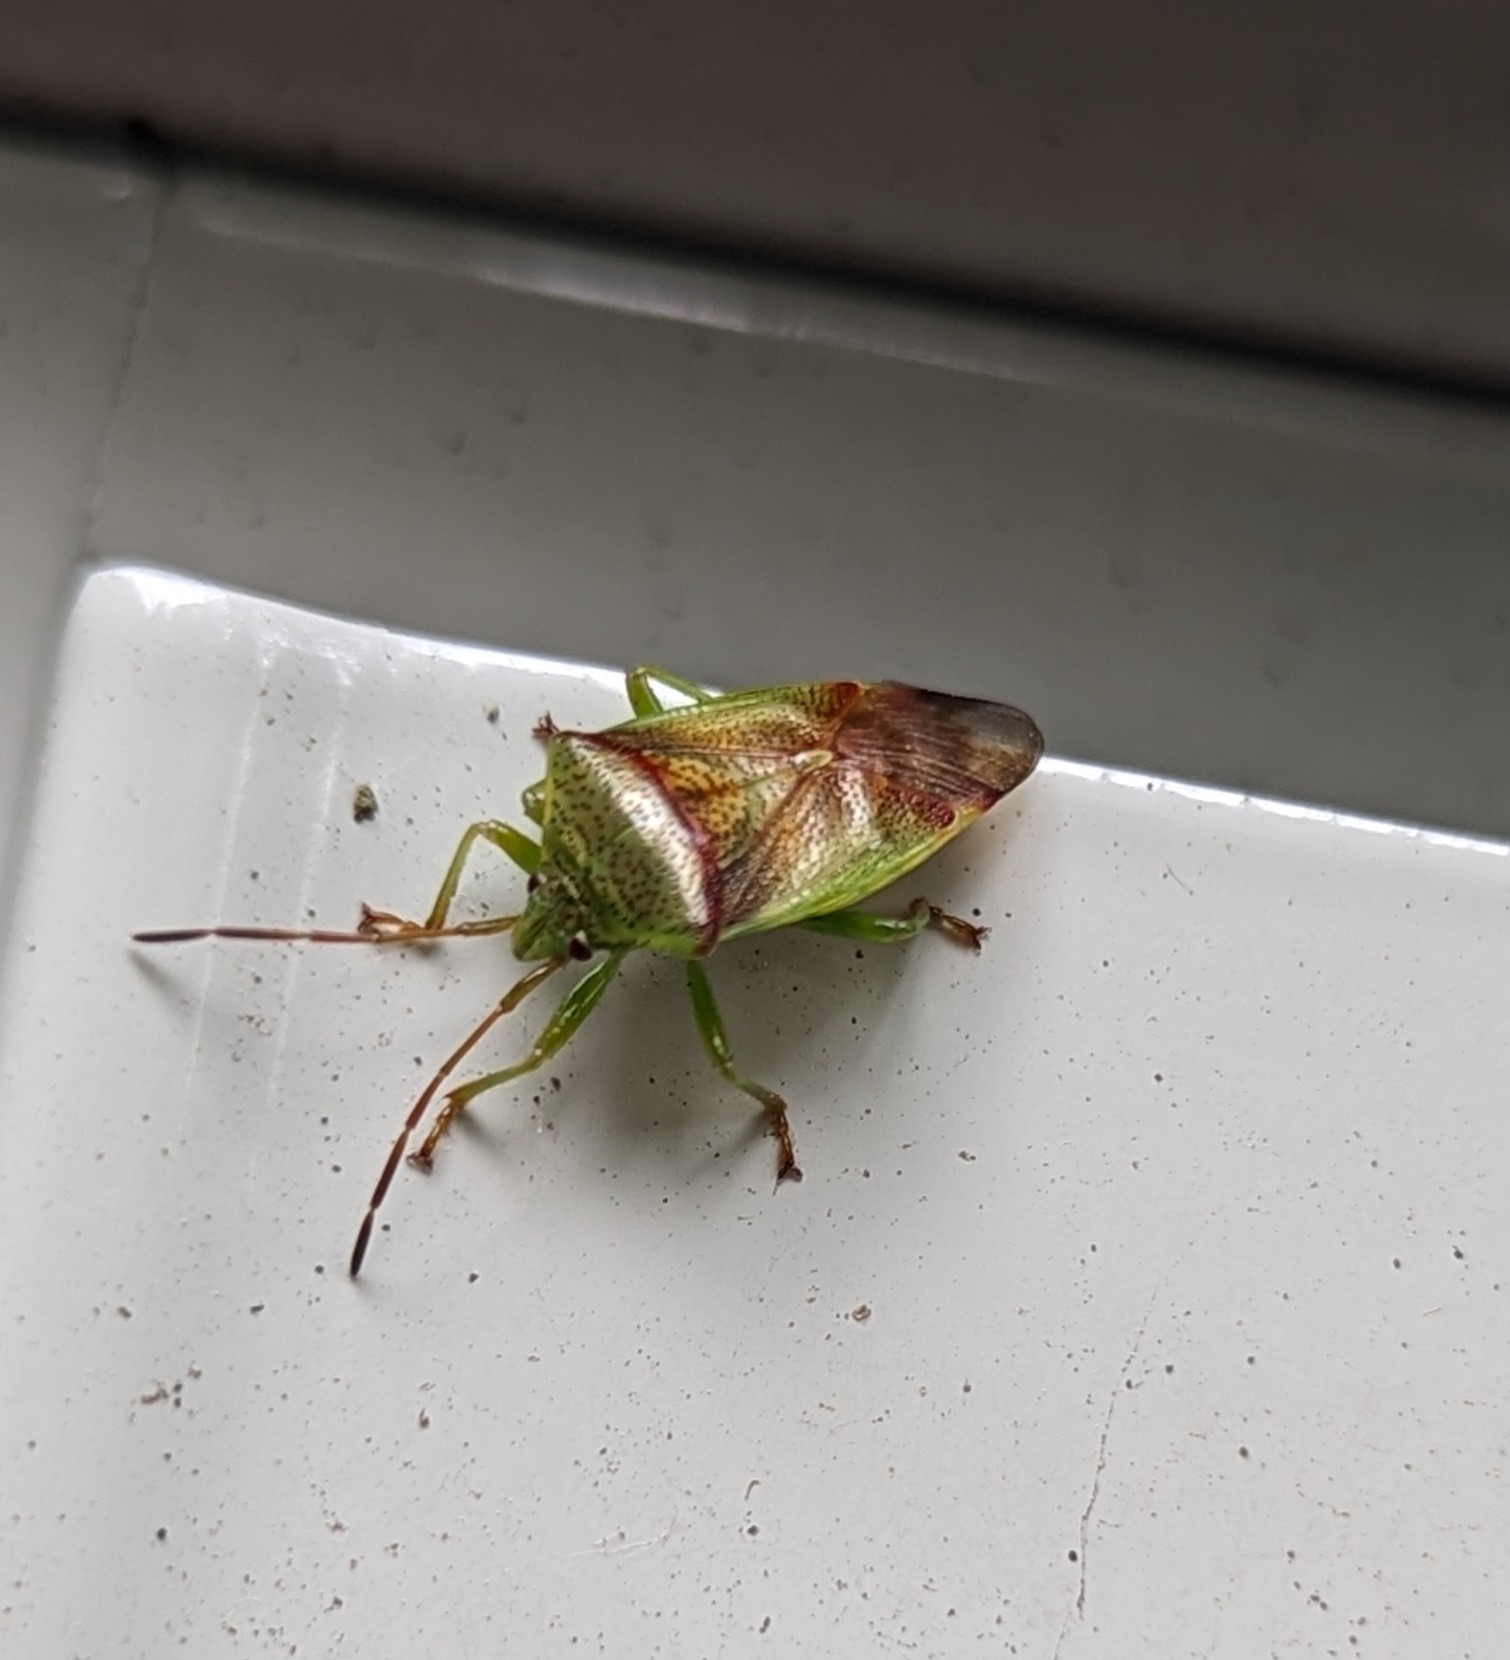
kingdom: Animalia
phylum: Arthropoda
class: Insecta
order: Hemiptera
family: Acanthosomatidae
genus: Elasmostethus
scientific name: Elasmostethus cruciatus
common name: Red-cross shield bug
